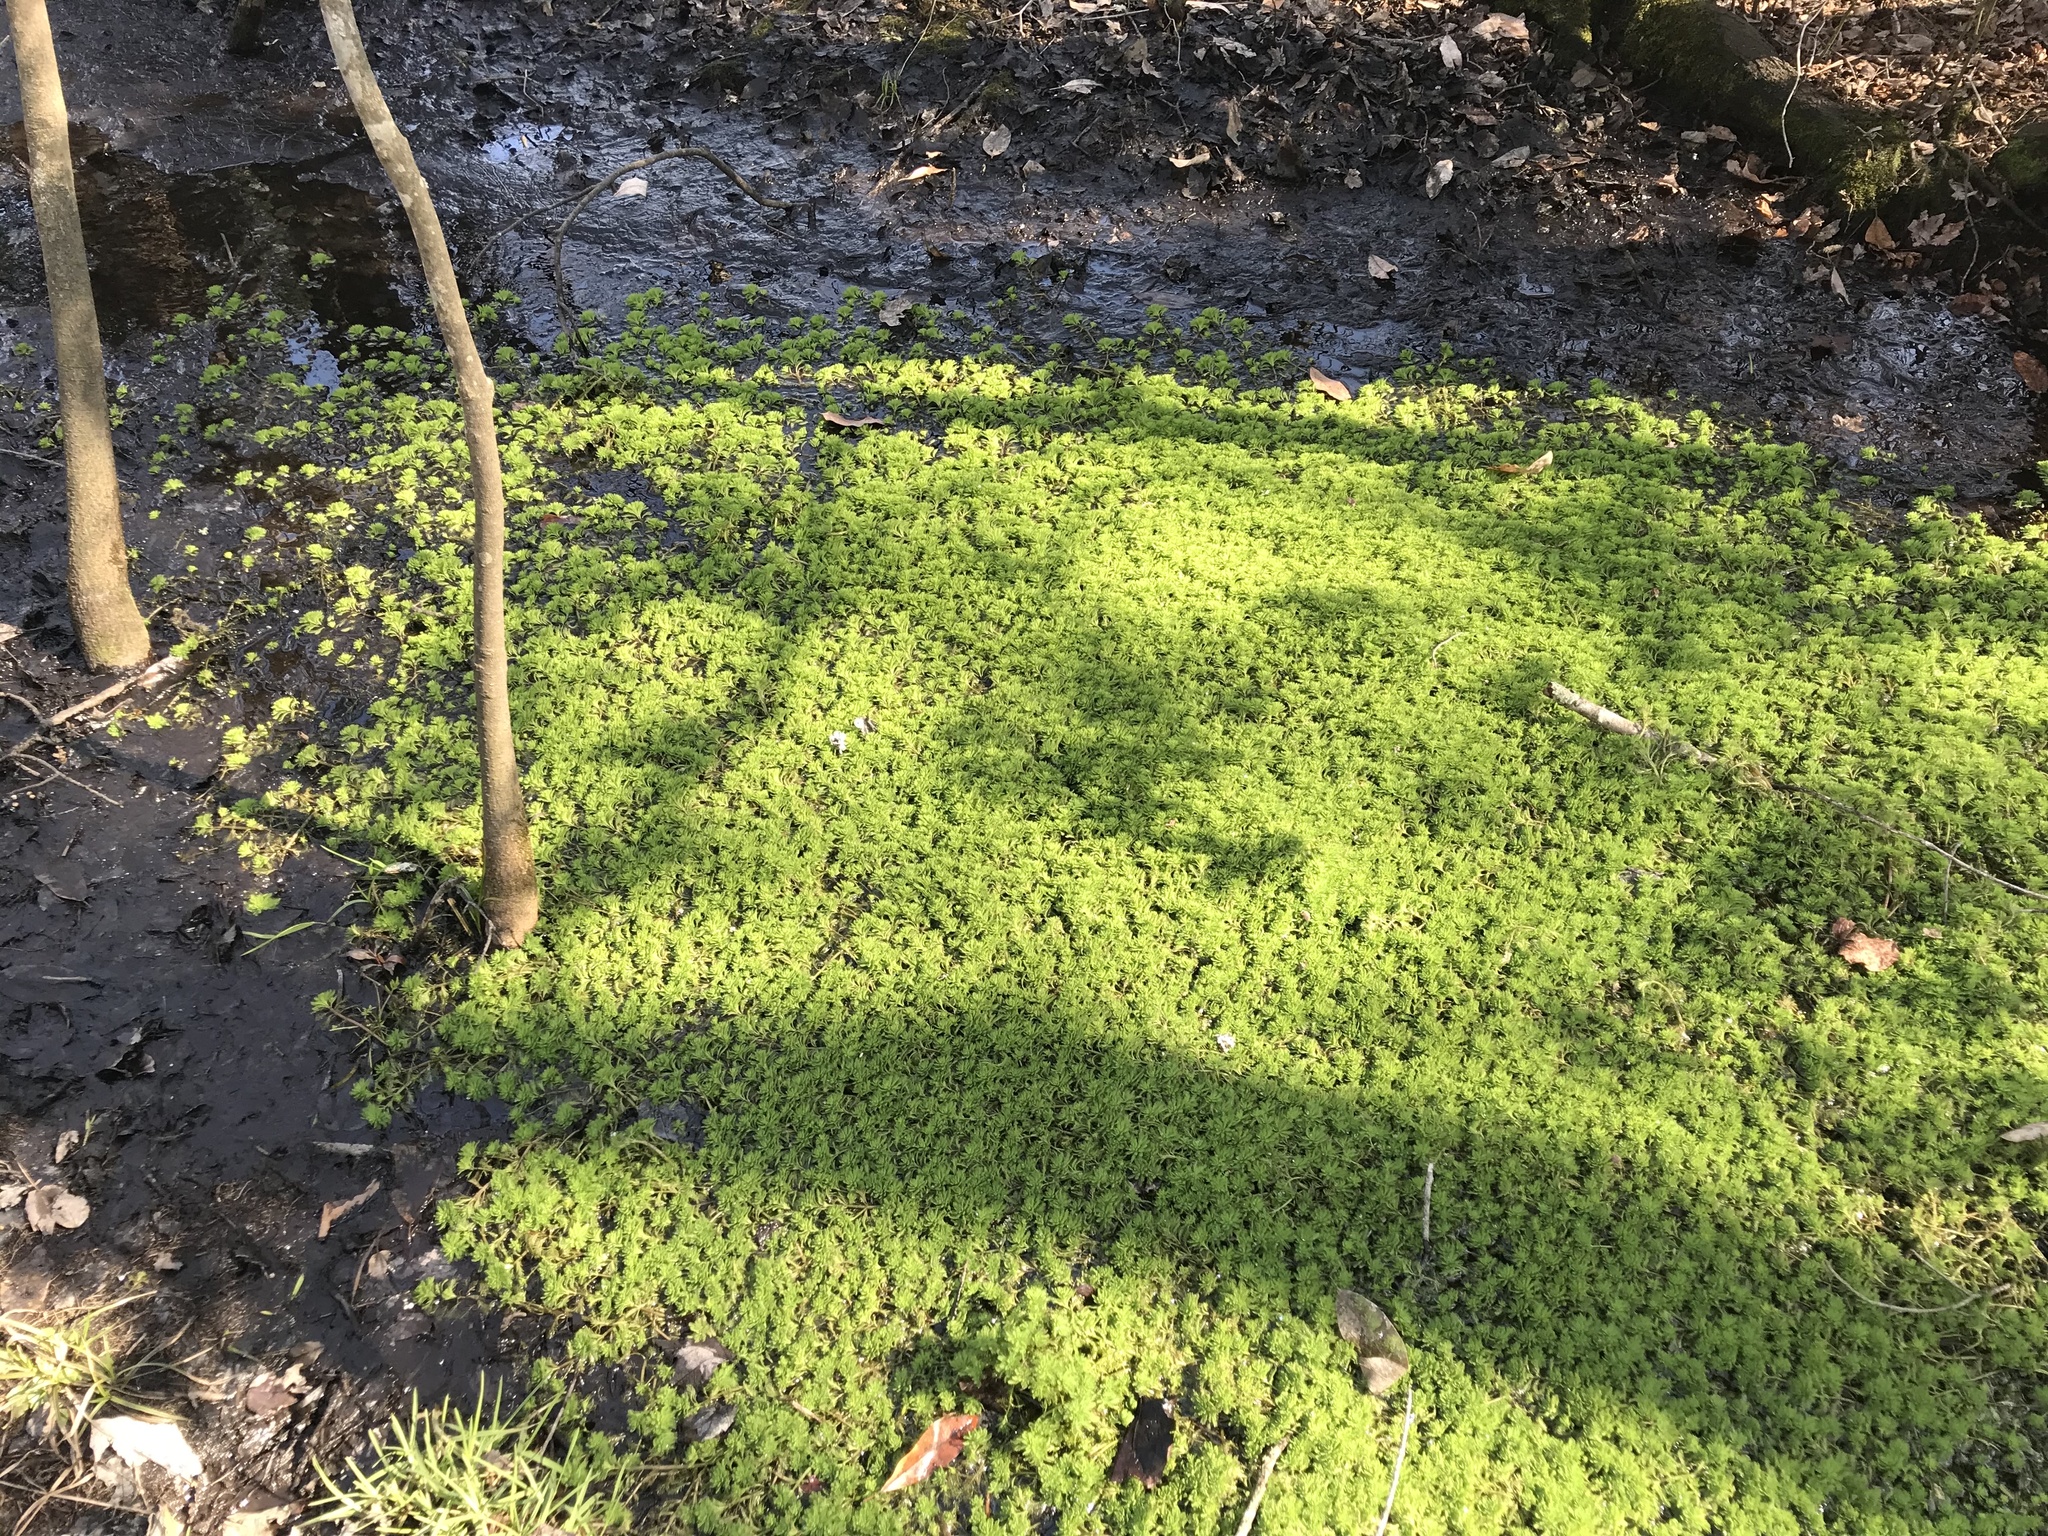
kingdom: Plantae
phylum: Tracheophyta
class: Magnoliopsida
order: Saxifragales
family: Haloragaceae
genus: Myriophyllum
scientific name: Myriophyllum aquaticum
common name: Parrot's feather
